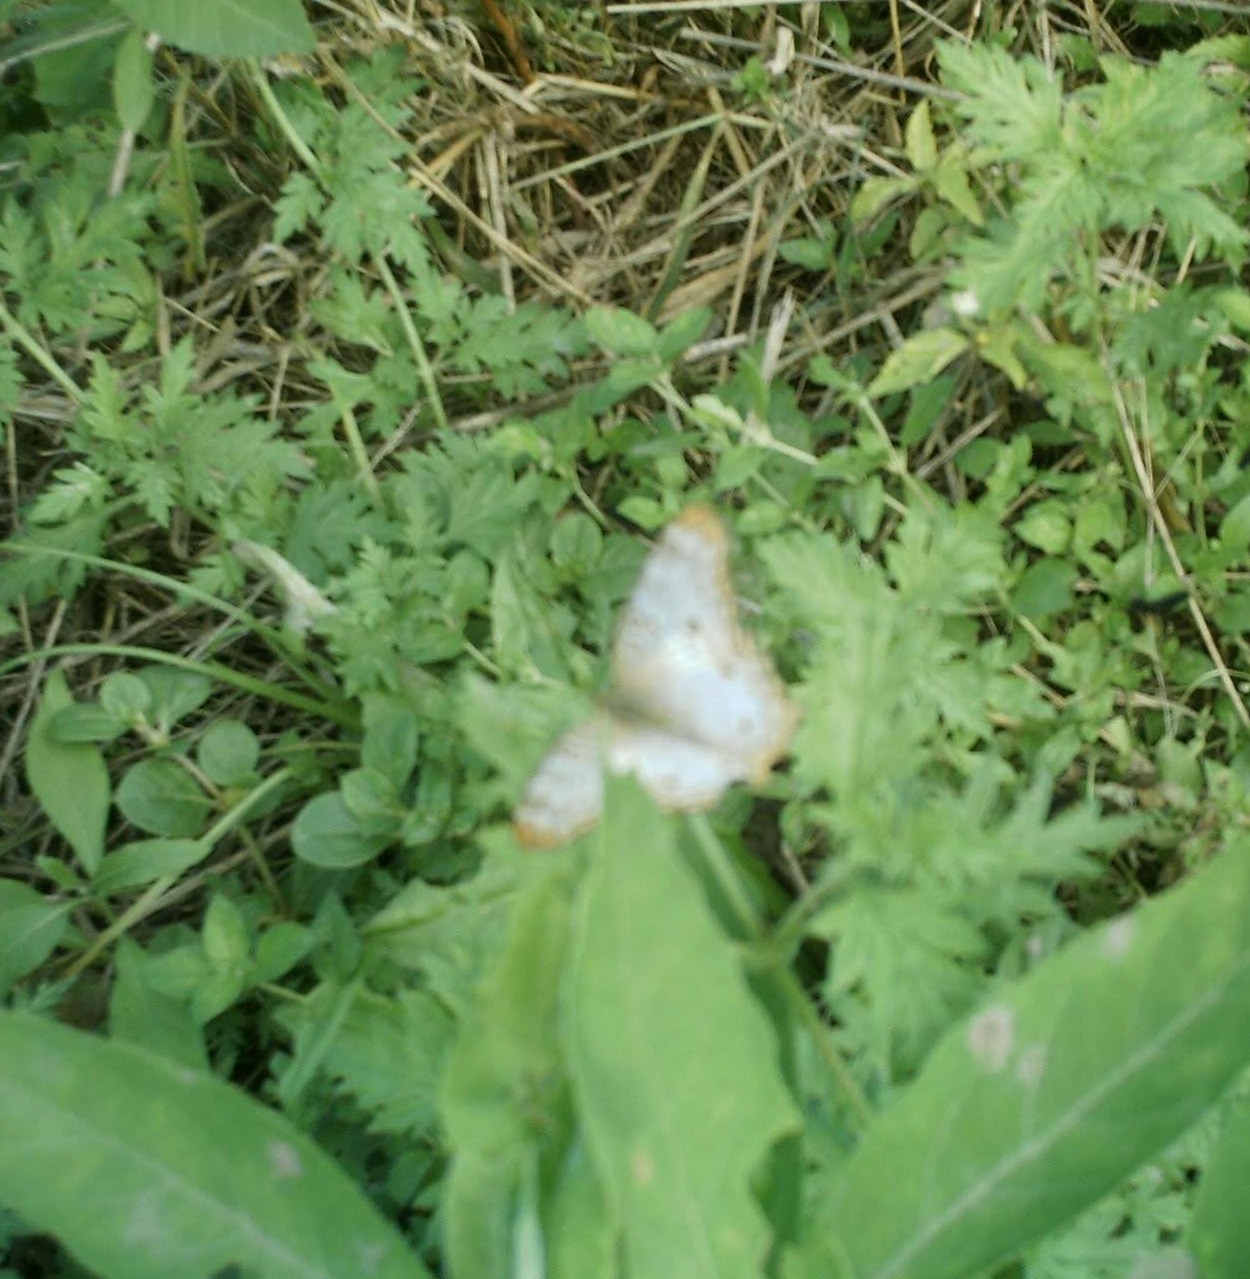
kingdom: Animalia
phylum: Arthropoda
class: Insecta
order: Lepidoptera
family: Nymphalidae
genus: Anartia
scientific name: Anartia jatrophae
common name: White peacock
